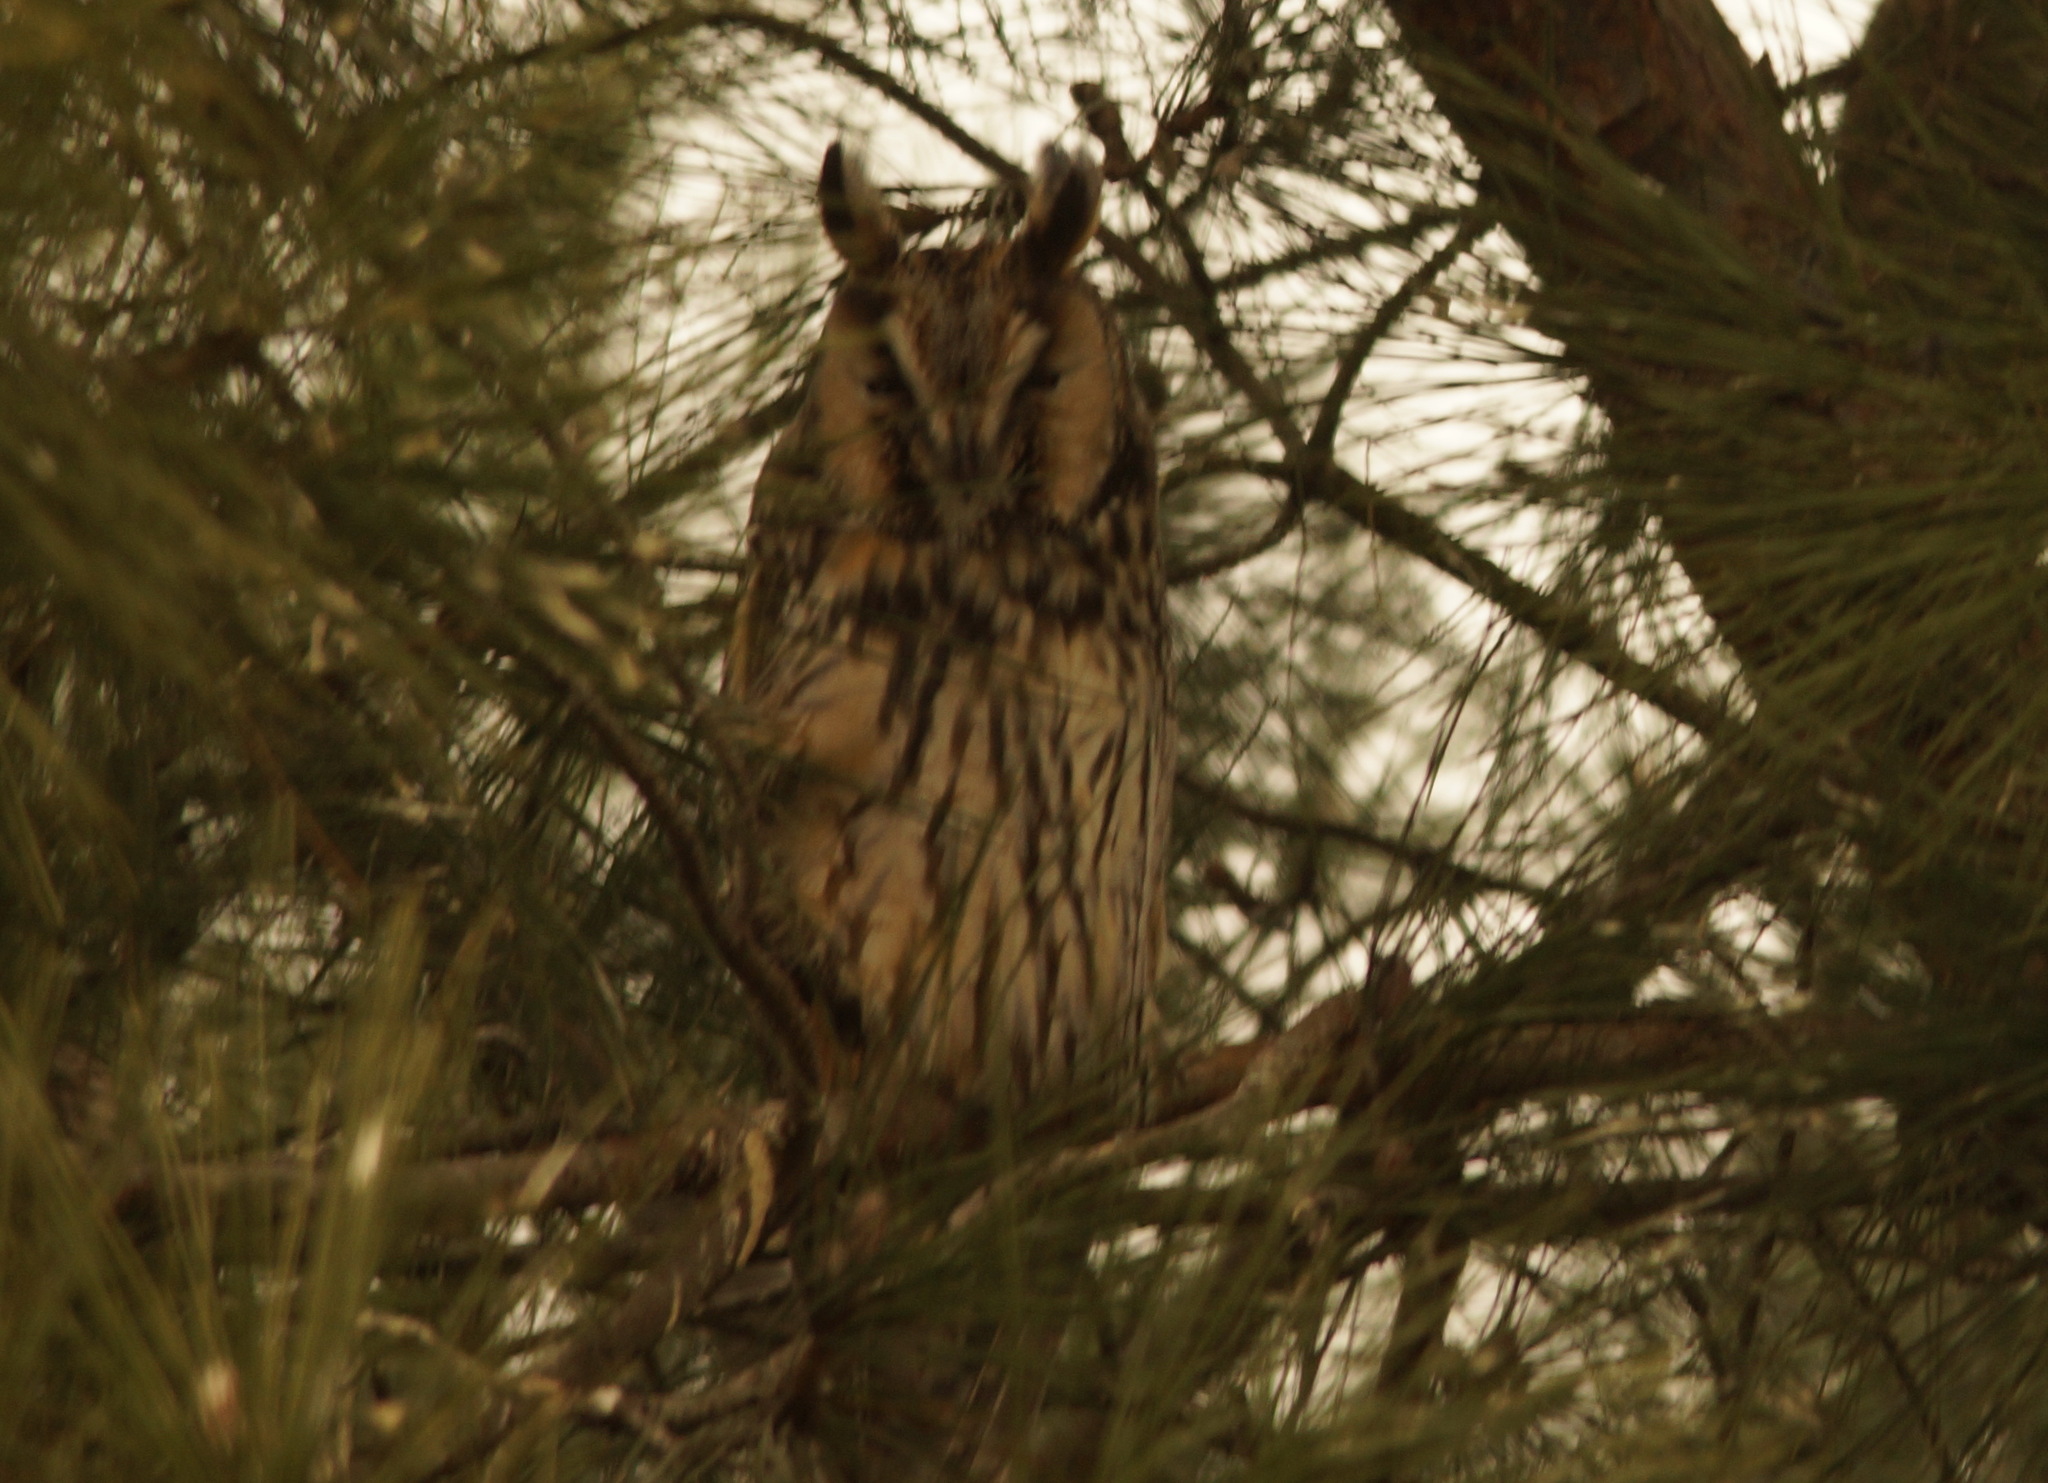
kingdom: Animalia
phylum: Chordata
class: Aves
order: Strigiformes
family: Strigidae
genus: Asio
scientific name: Asio otus
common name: Long-eared owl
